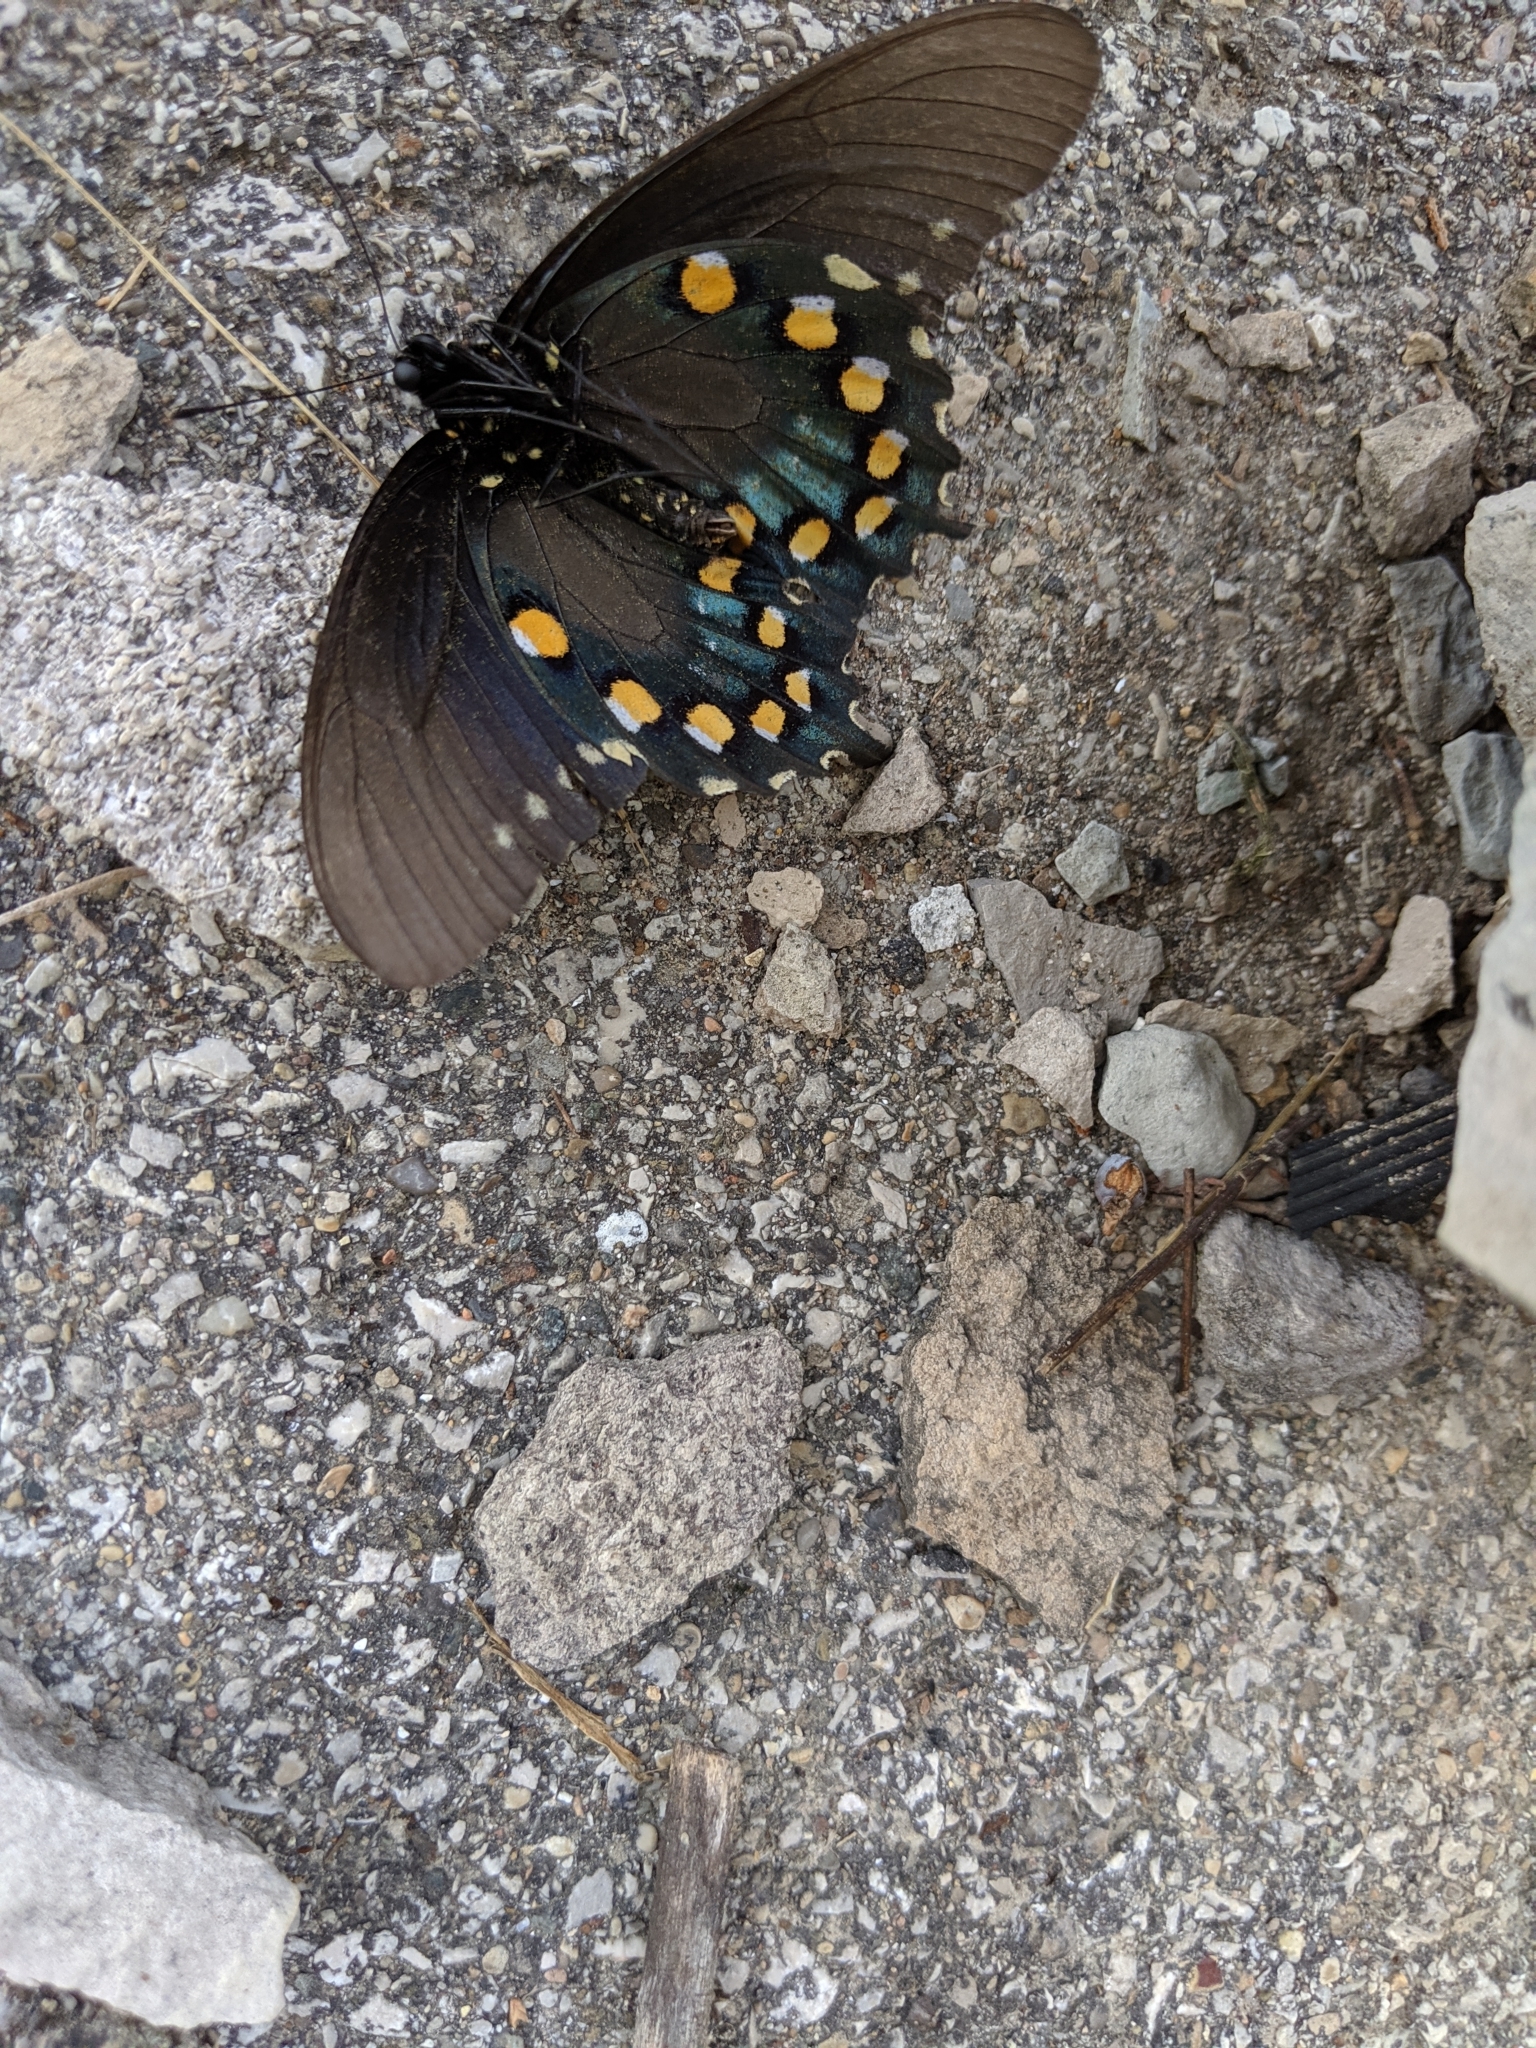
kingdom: Animalia
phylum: Arthropoda
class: Insecta
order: Lepidoptera
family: Papilionidae
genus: Battus
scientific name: Battus philenor
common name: Pipevine swallowtail
